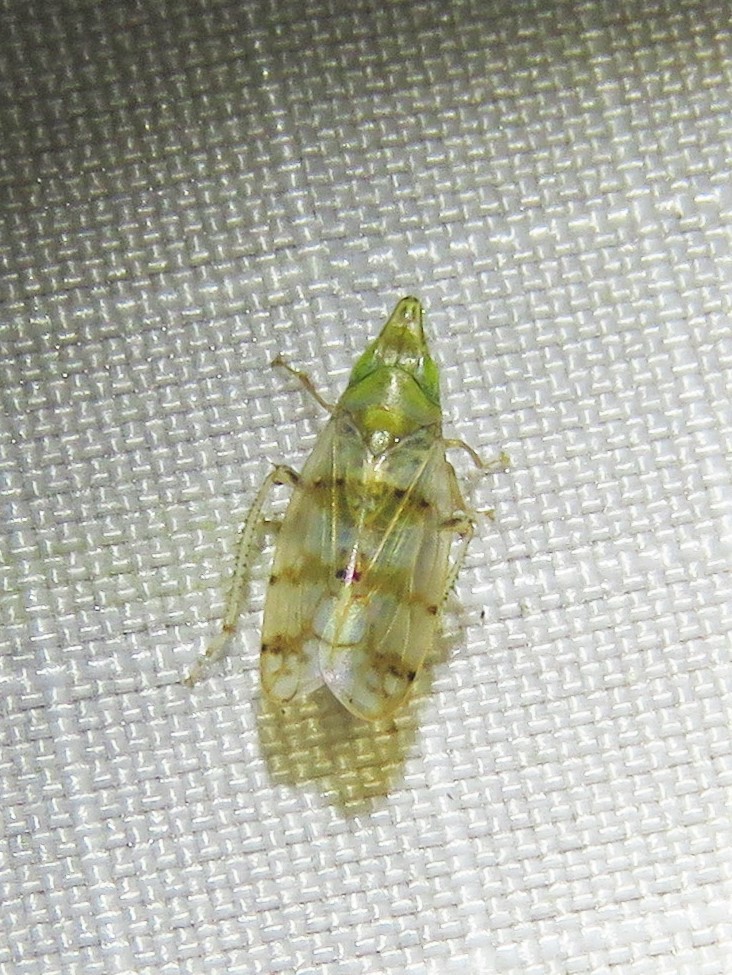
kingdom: Animalia
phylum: Arthropoda
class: Insecta
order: Hemiptera
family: Cicadellidae
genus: Japananus
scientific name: Japananus hyalinus
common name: The japanese maple leafhopper
